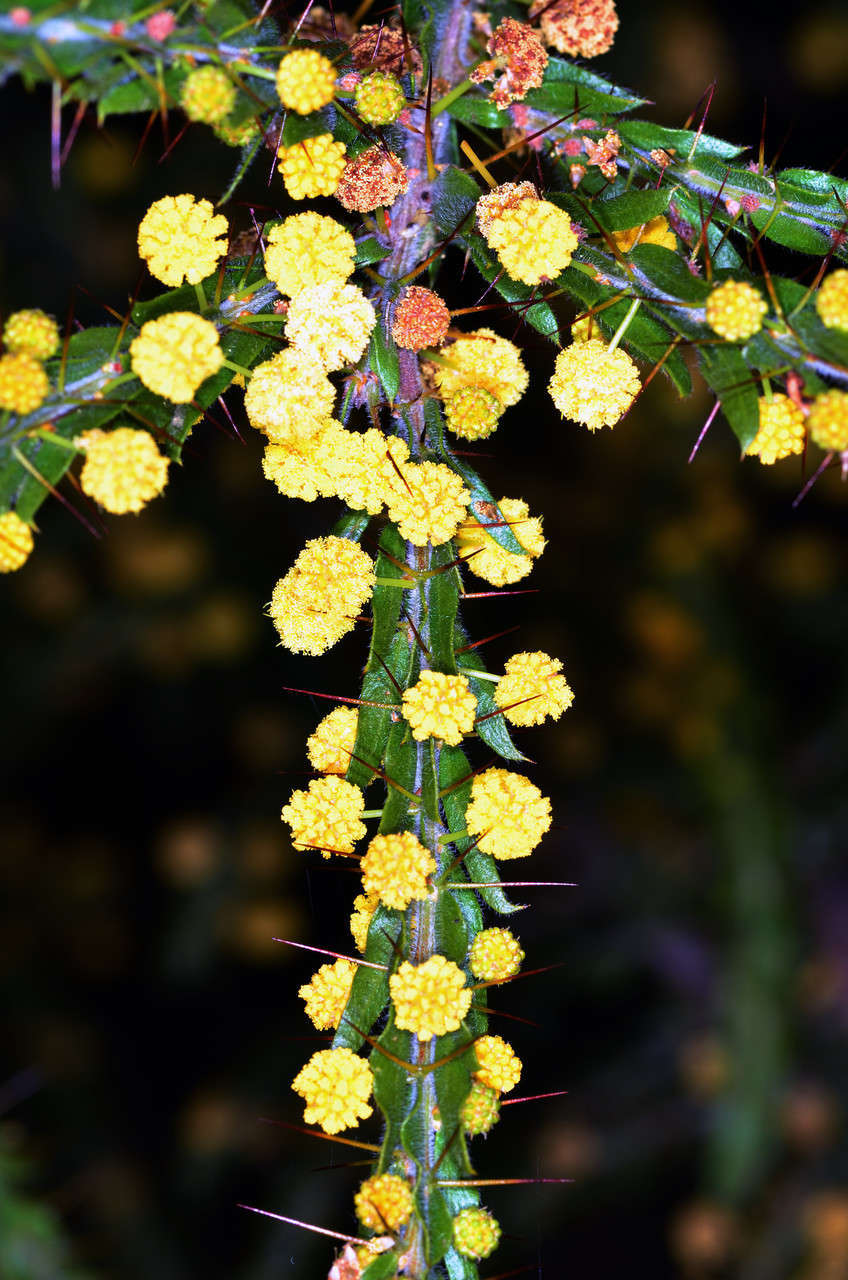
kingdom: Plantae
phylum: Tracheophyta
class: Magnoliopsida
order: Fabales
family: Fabaceae
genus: Acacia
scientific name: Acacia paradoxa
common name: Paradox acacia
